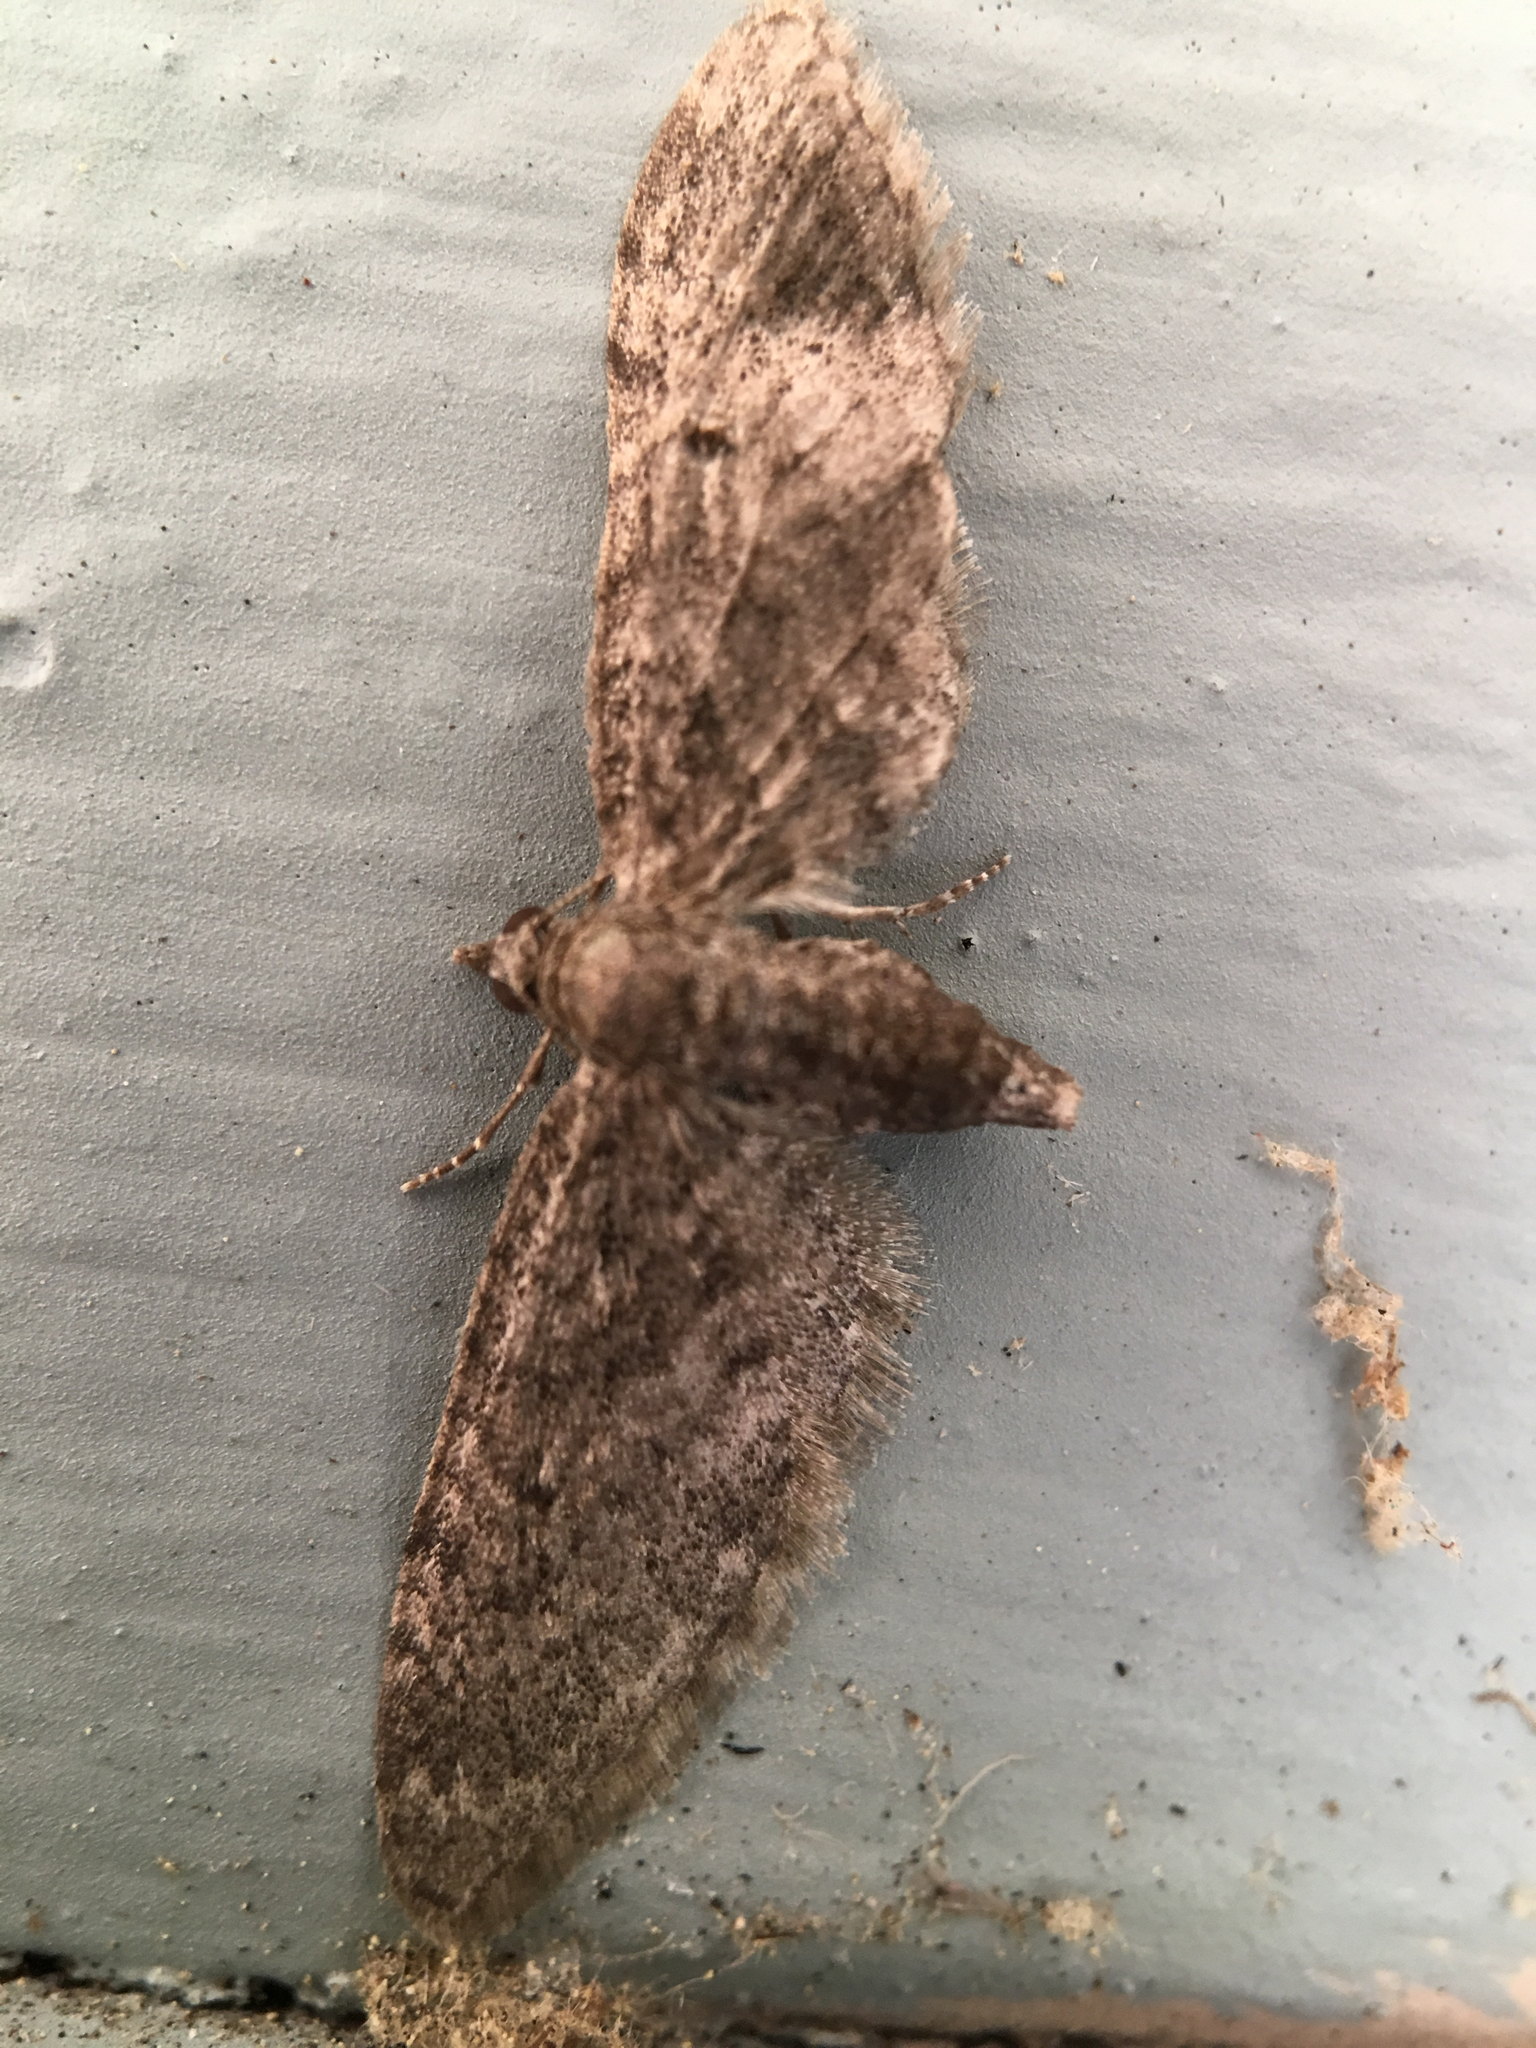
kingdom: Animalia
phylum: Arthropoda
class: Insecta
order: Lepidoptera
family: Geometridae
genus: Eupithecia
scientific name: Eupithecia
